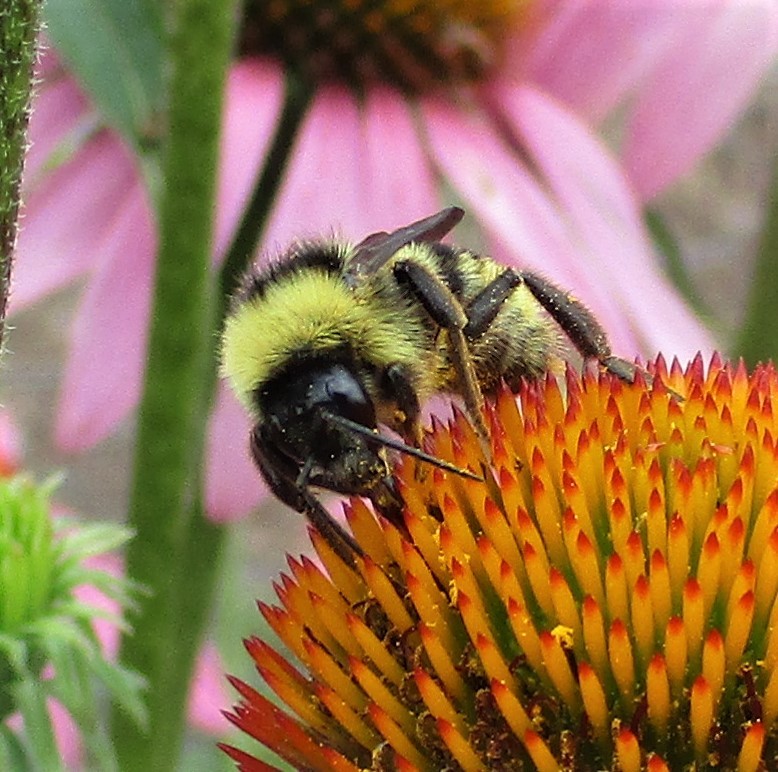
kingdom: Animalia
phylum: Arthropoda
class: Insecta
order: Hymenoptera
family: Apidae
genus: Bombus
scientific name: Bombus californicus
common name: California bumble bee
